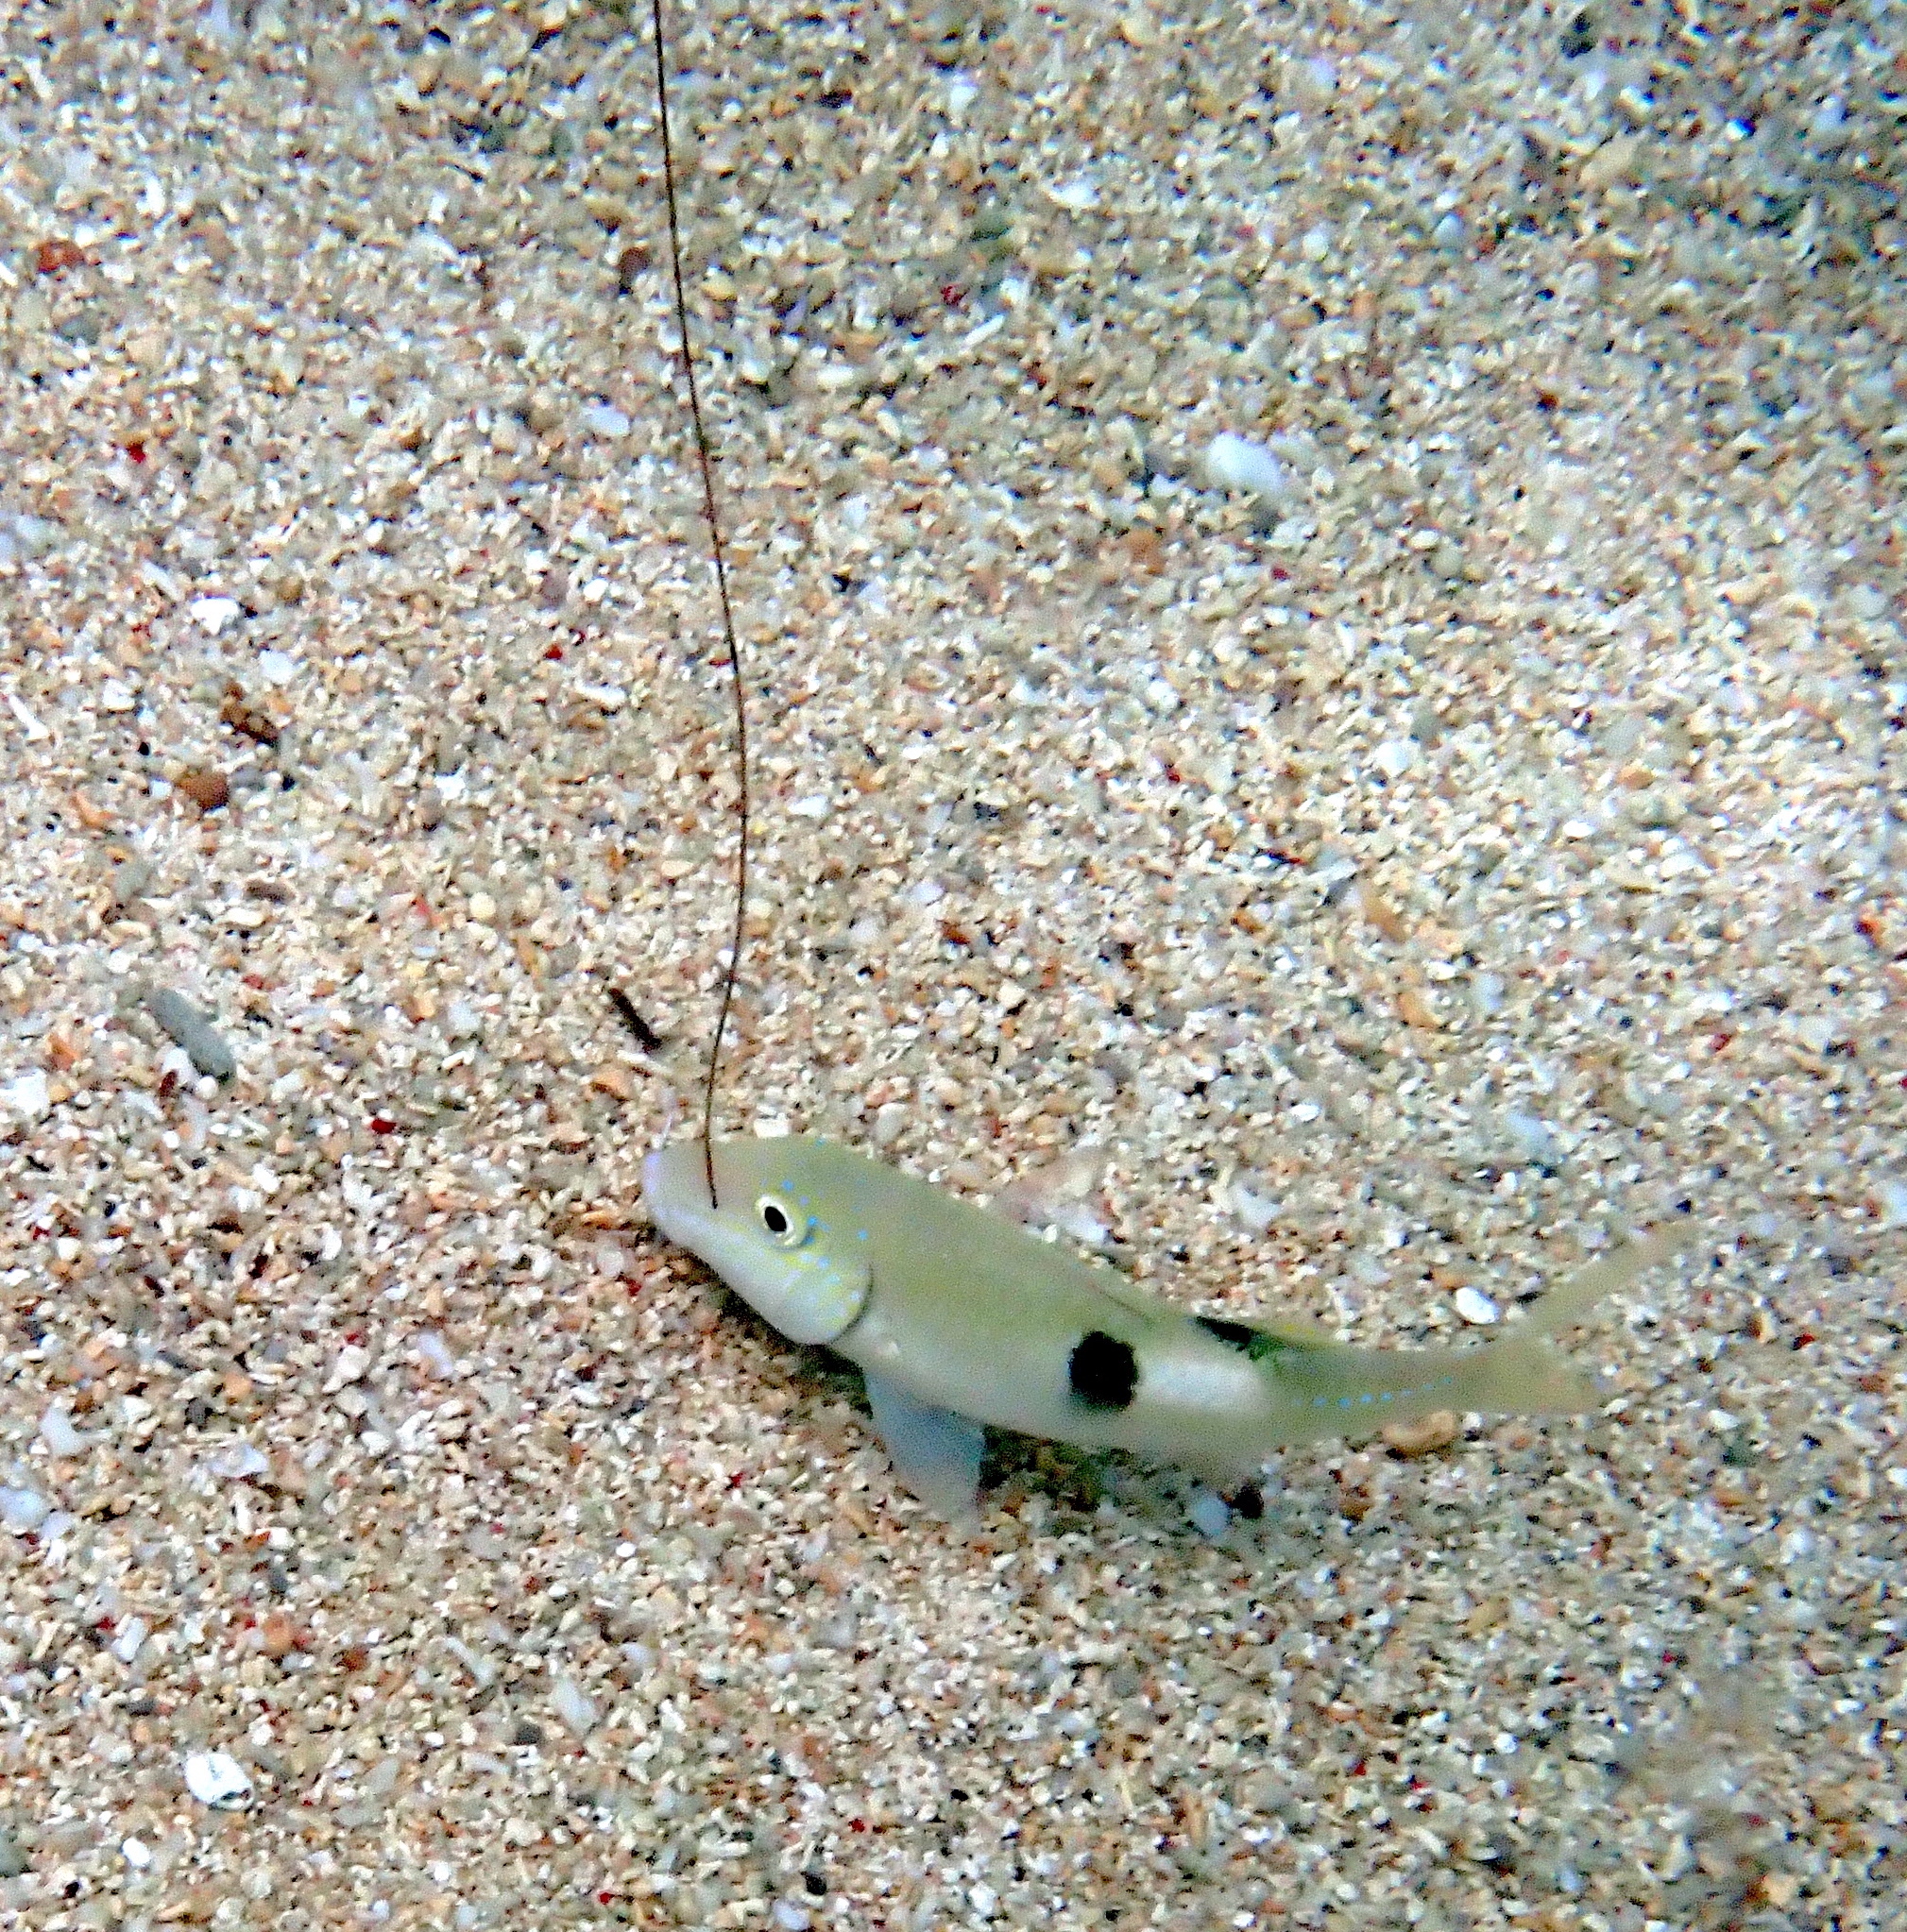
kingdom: Animalia
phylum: Chordata
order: Perciformes
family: Mullidae
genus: Parupeneus
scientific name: Parupeneus pleurostigma
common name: Sidespot goatfish
